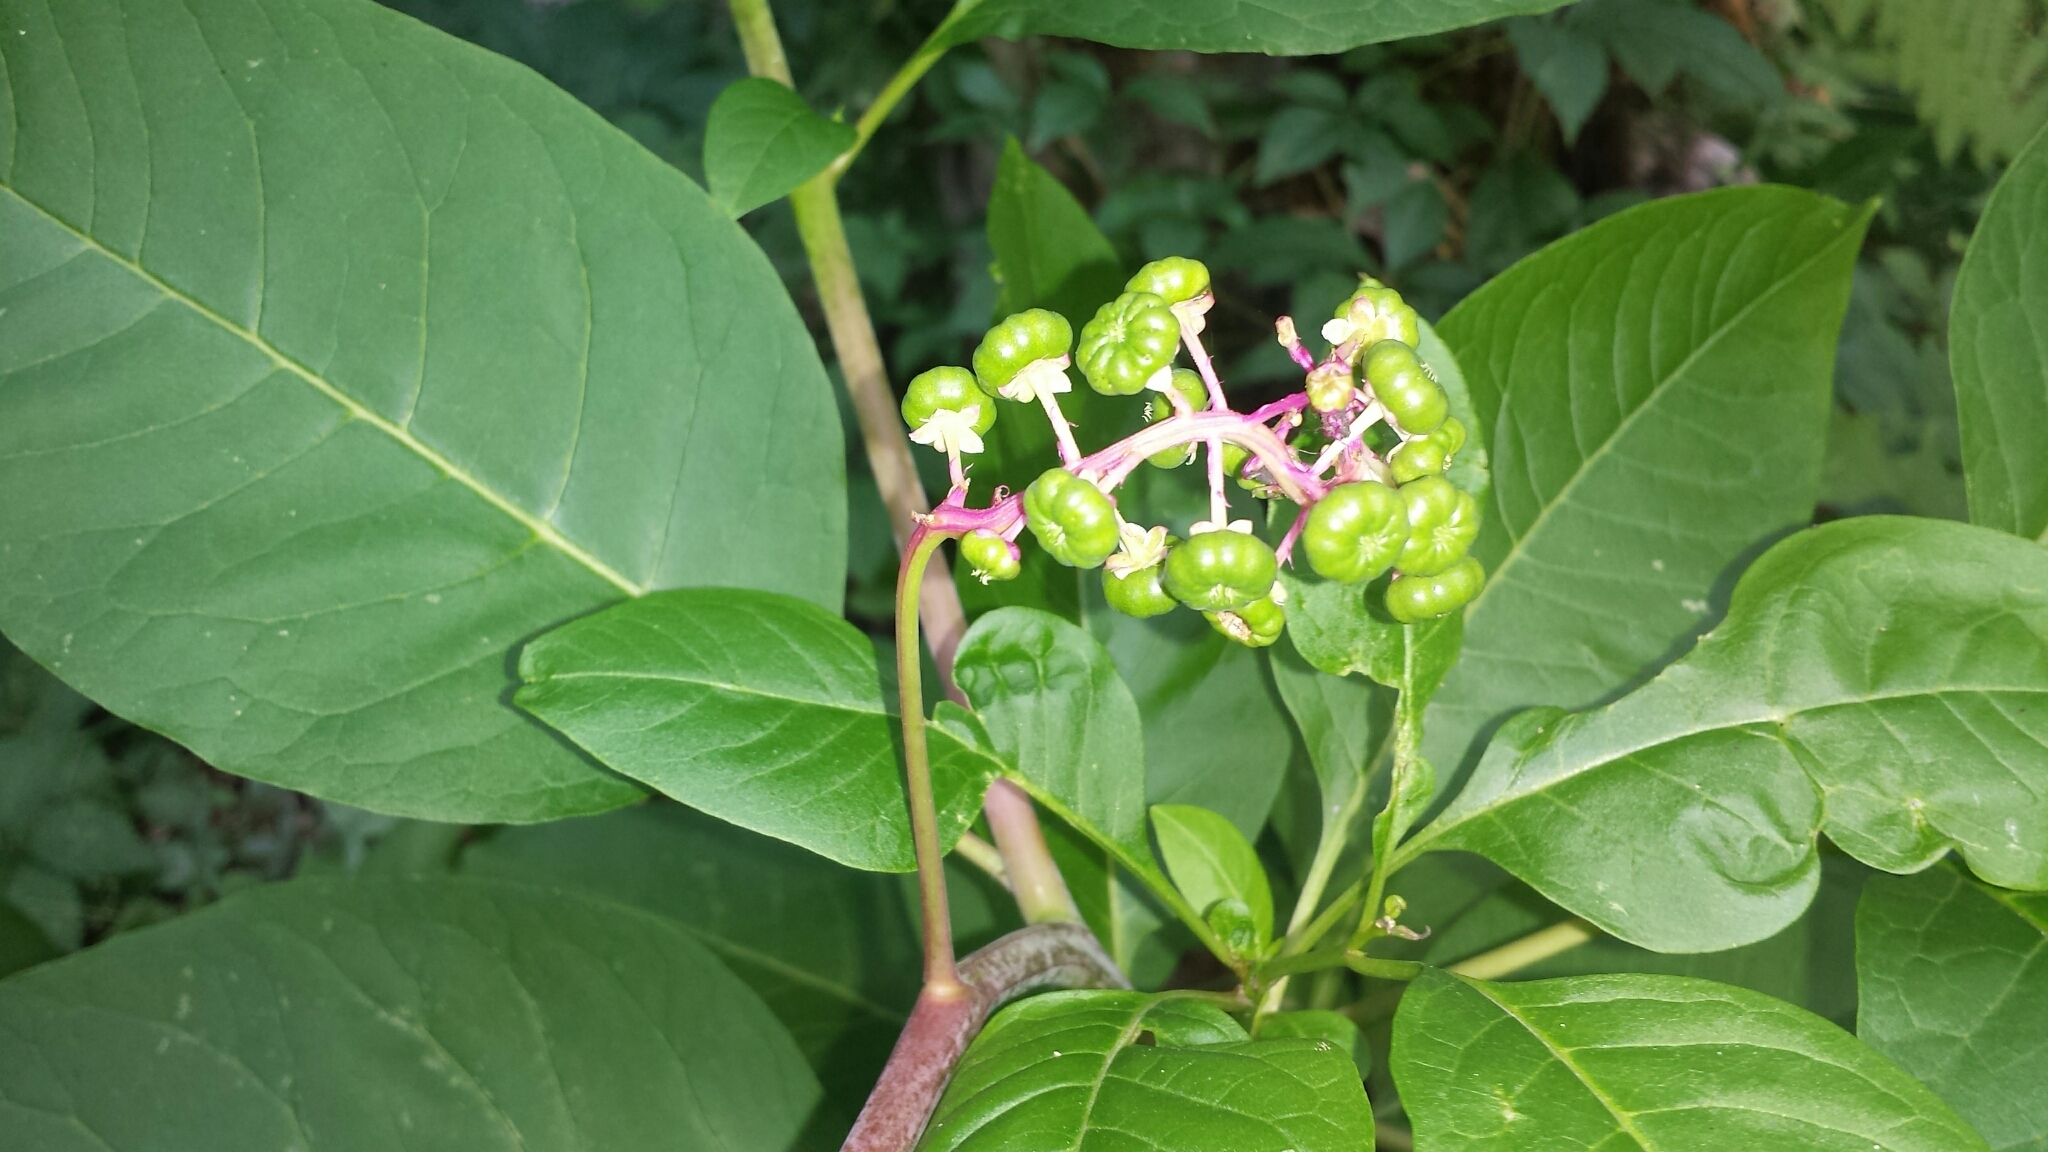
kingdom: Plantae
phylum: Tracheophyta
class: Magnoliopsida
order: Caryophyllales
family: Phytolaccaceae
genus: Phytolacca
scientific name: Phytolacca americana
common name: American pokeweed
